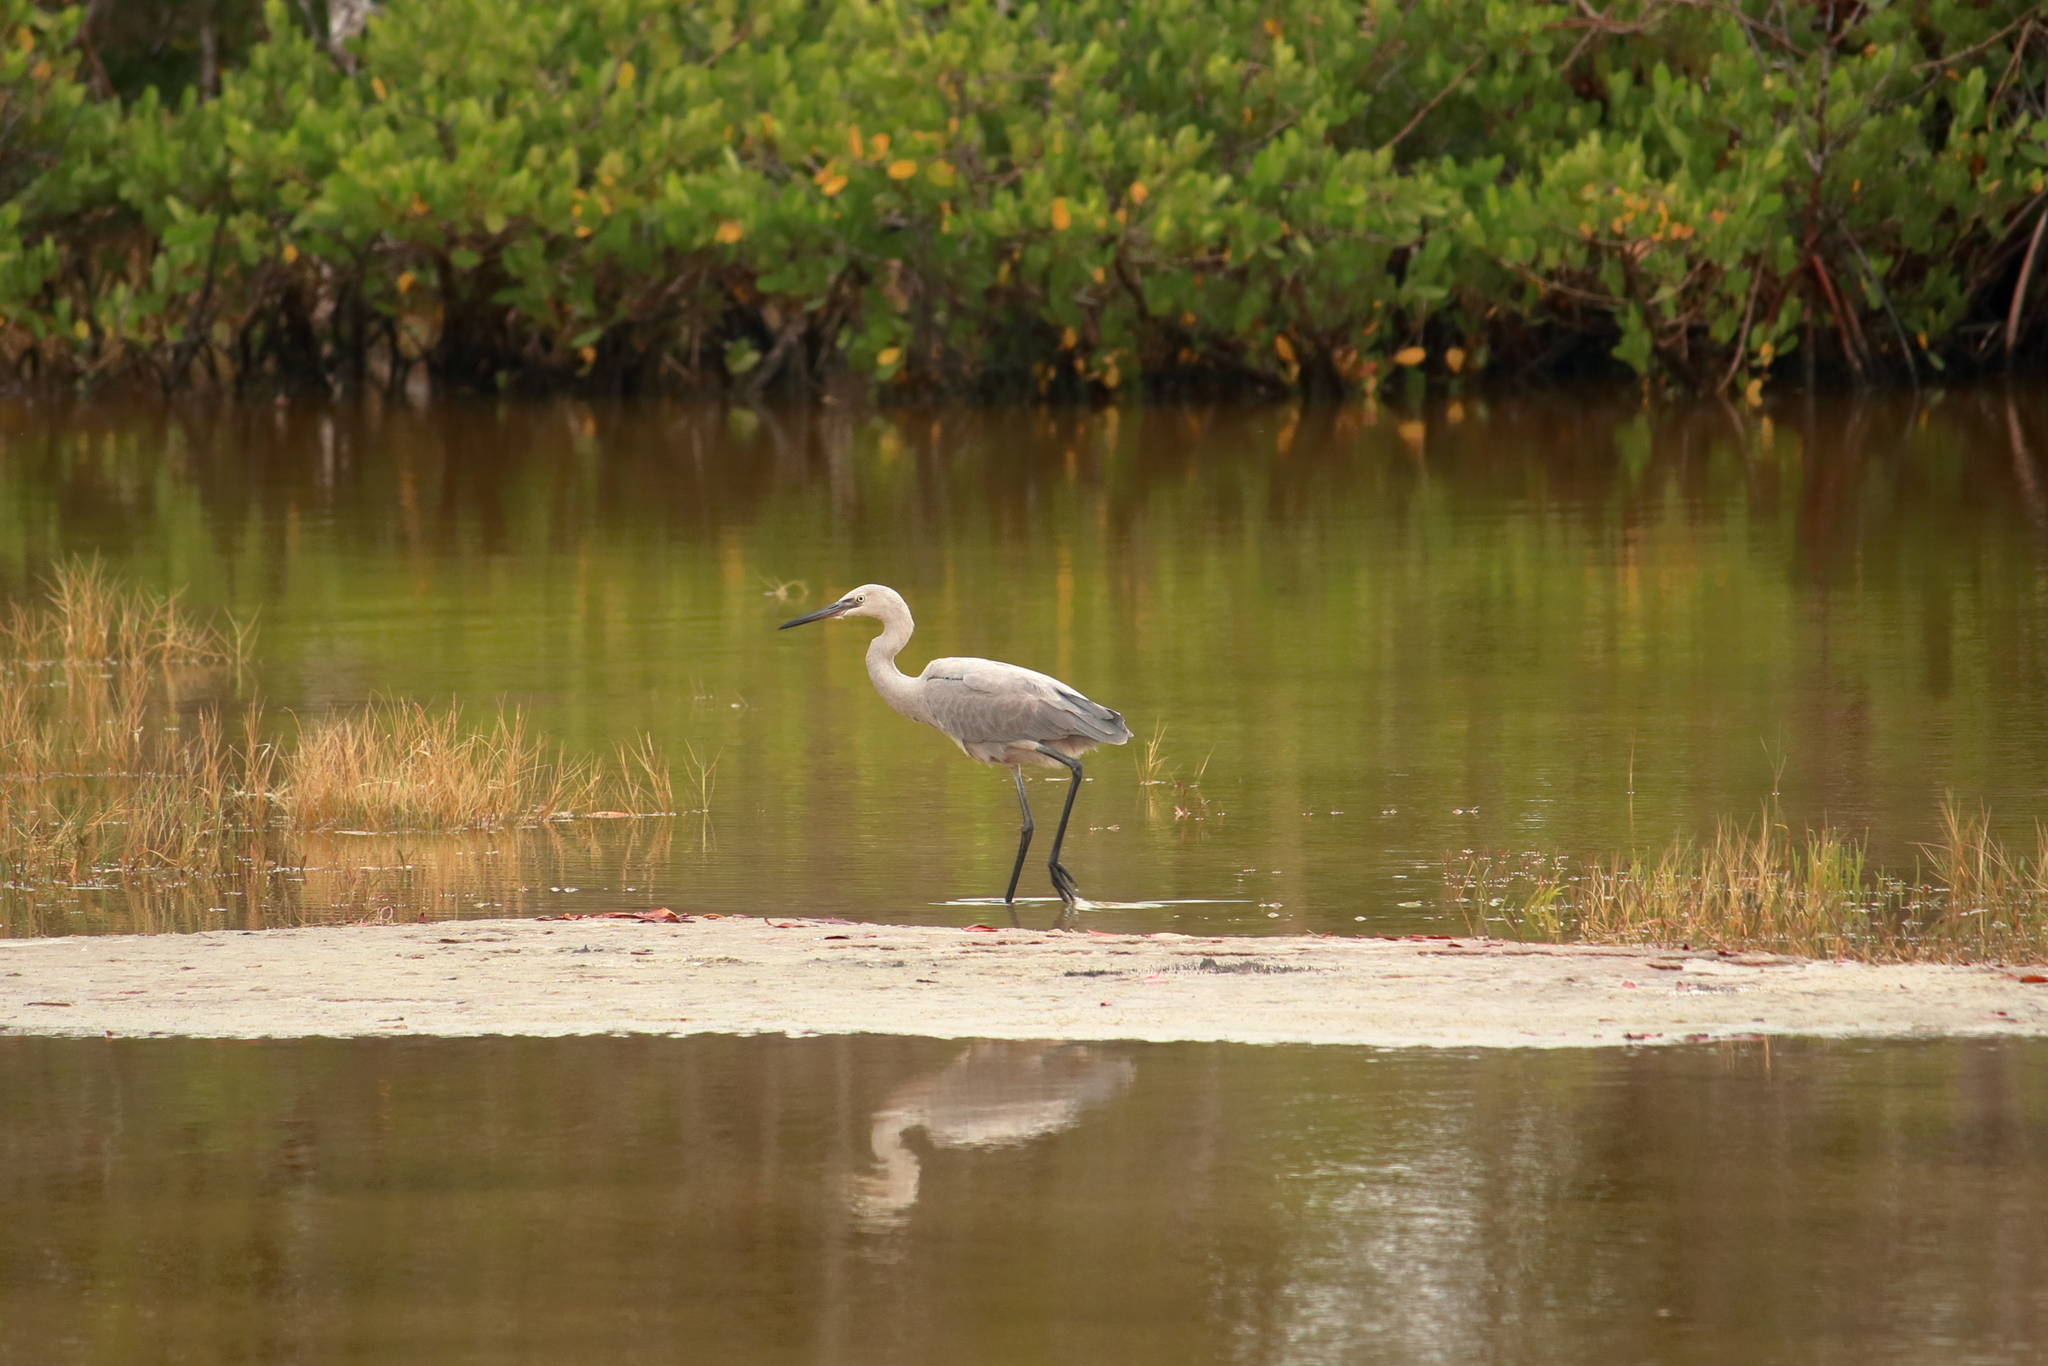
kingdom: Animalia
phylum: Chordata
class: Aves
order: Pelecaniformes
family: Ardeidae
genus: Egretta
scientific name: Egretta rufescens
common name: Reddish egret
